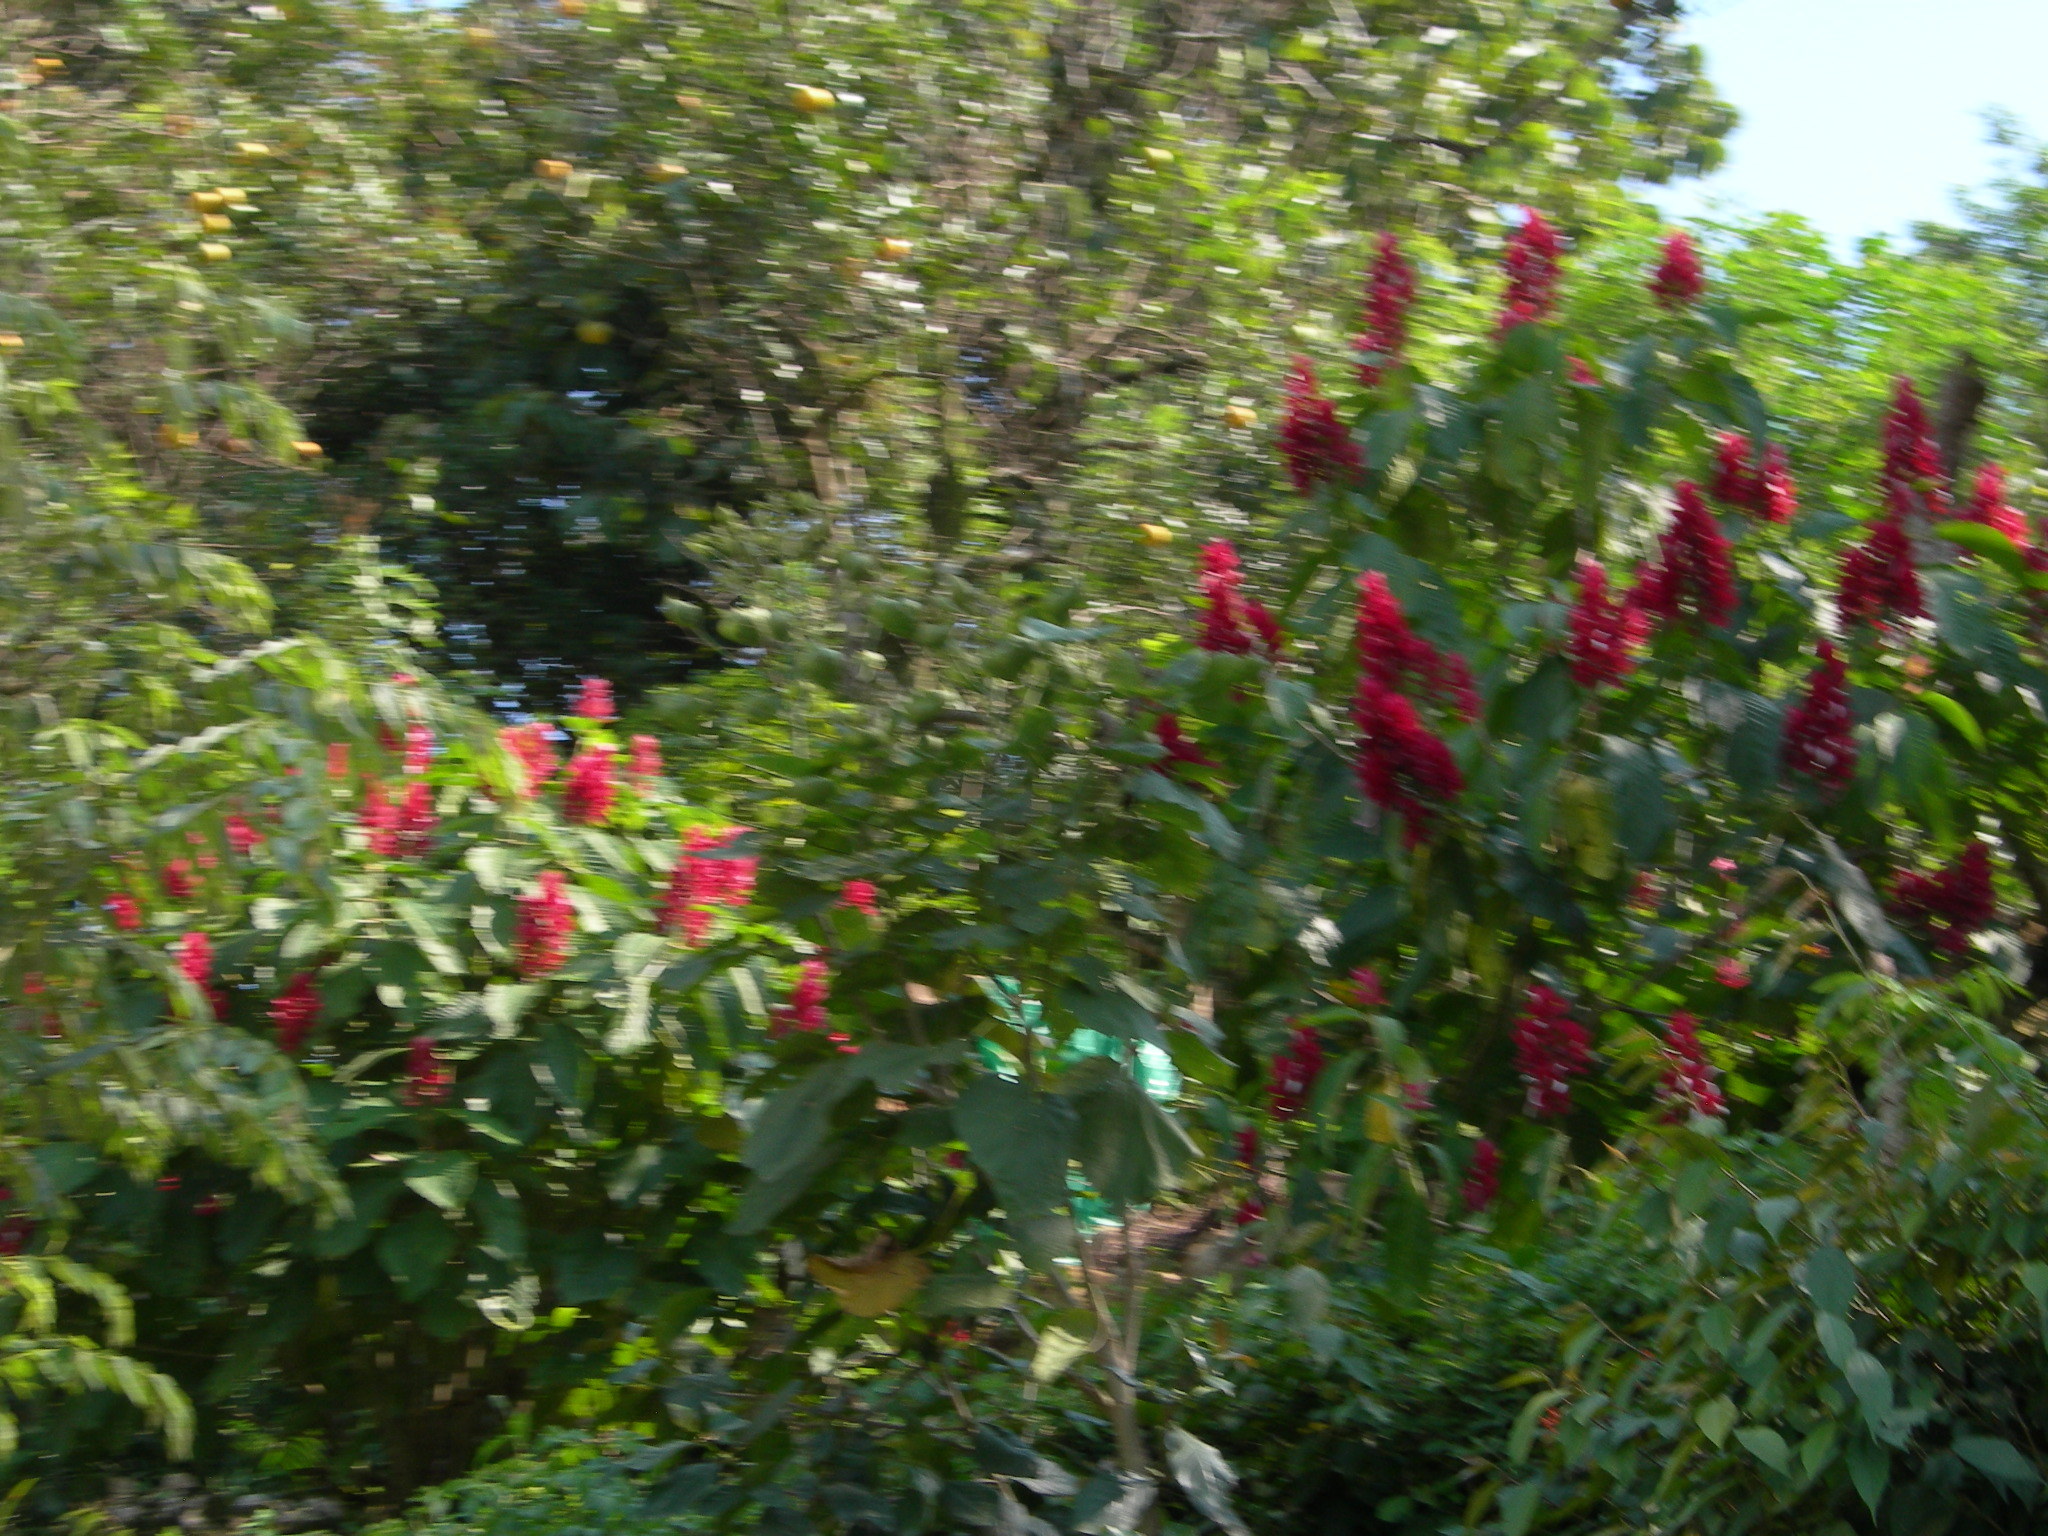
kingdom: Plantae
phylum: Tracheophyta
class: Magnoliopsida
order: Lamiales
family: Acanthaceae
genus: Megaskepasma
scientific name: Megaskepasma erythrochlamys
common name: Brazilian red-cloak
